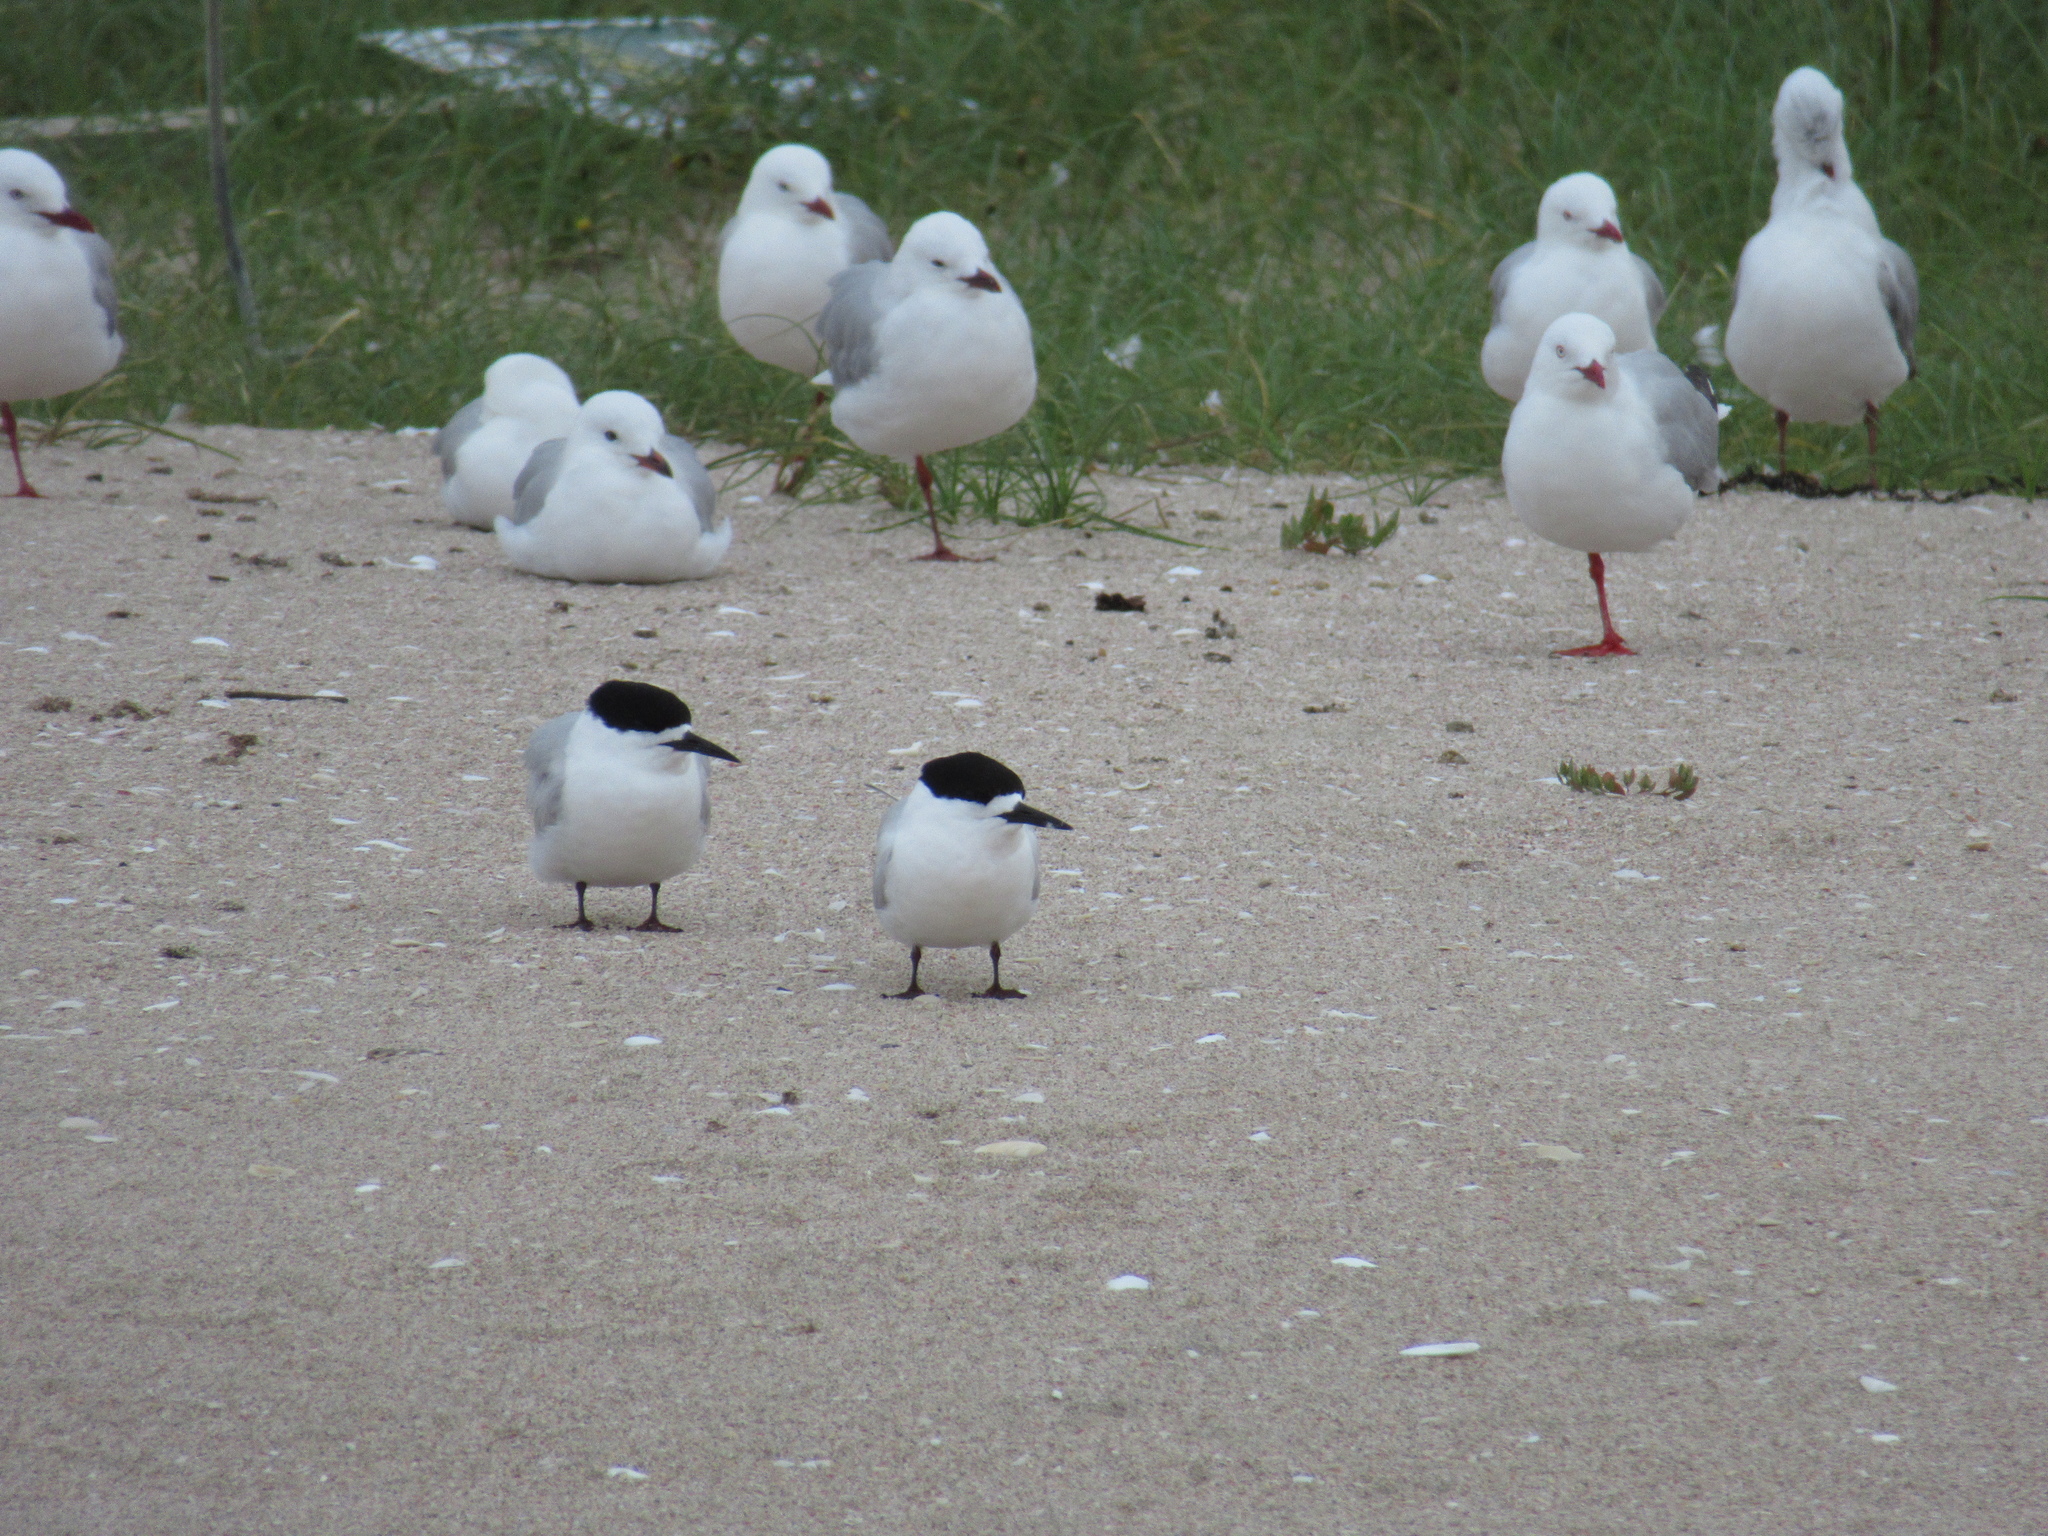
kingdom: Animalia
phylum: Chordata
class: Aves
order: Charadriiformes
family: Laridae
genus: Sterna
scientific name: Sterna striata
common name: White-fronted tern
